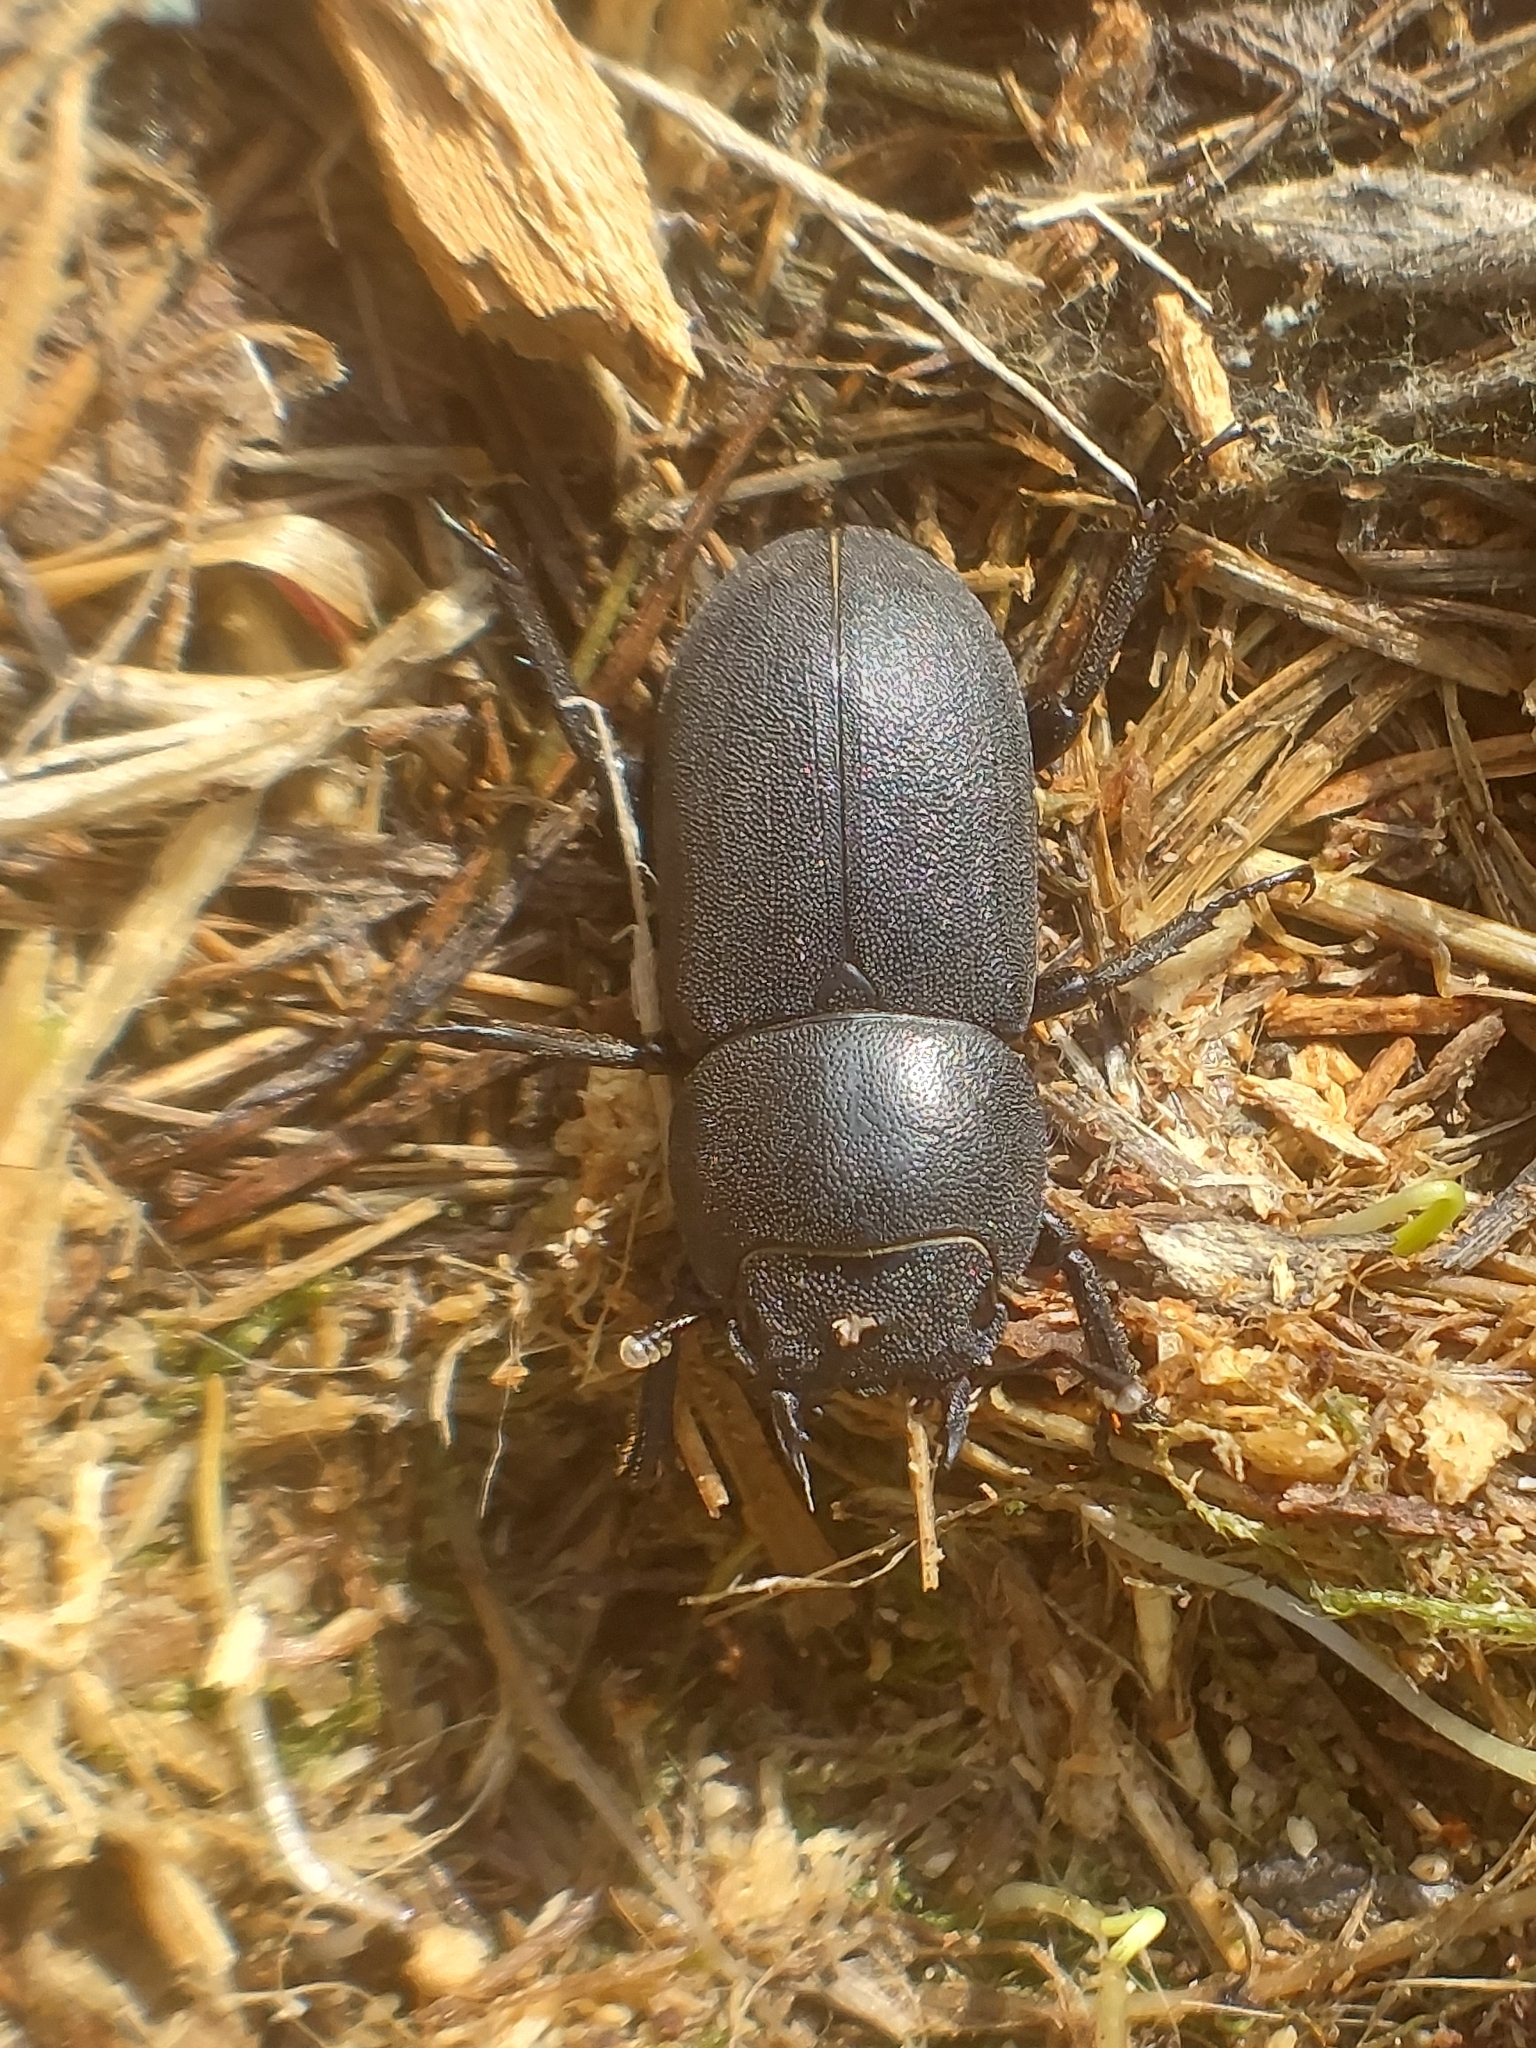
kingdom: Animalia
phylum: Arthropoda
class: Insecta
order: Coleoptera
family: Lucanidae
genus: Dorcus
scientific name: Dorcus parallelipipedus
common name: Lesser stag beetle
